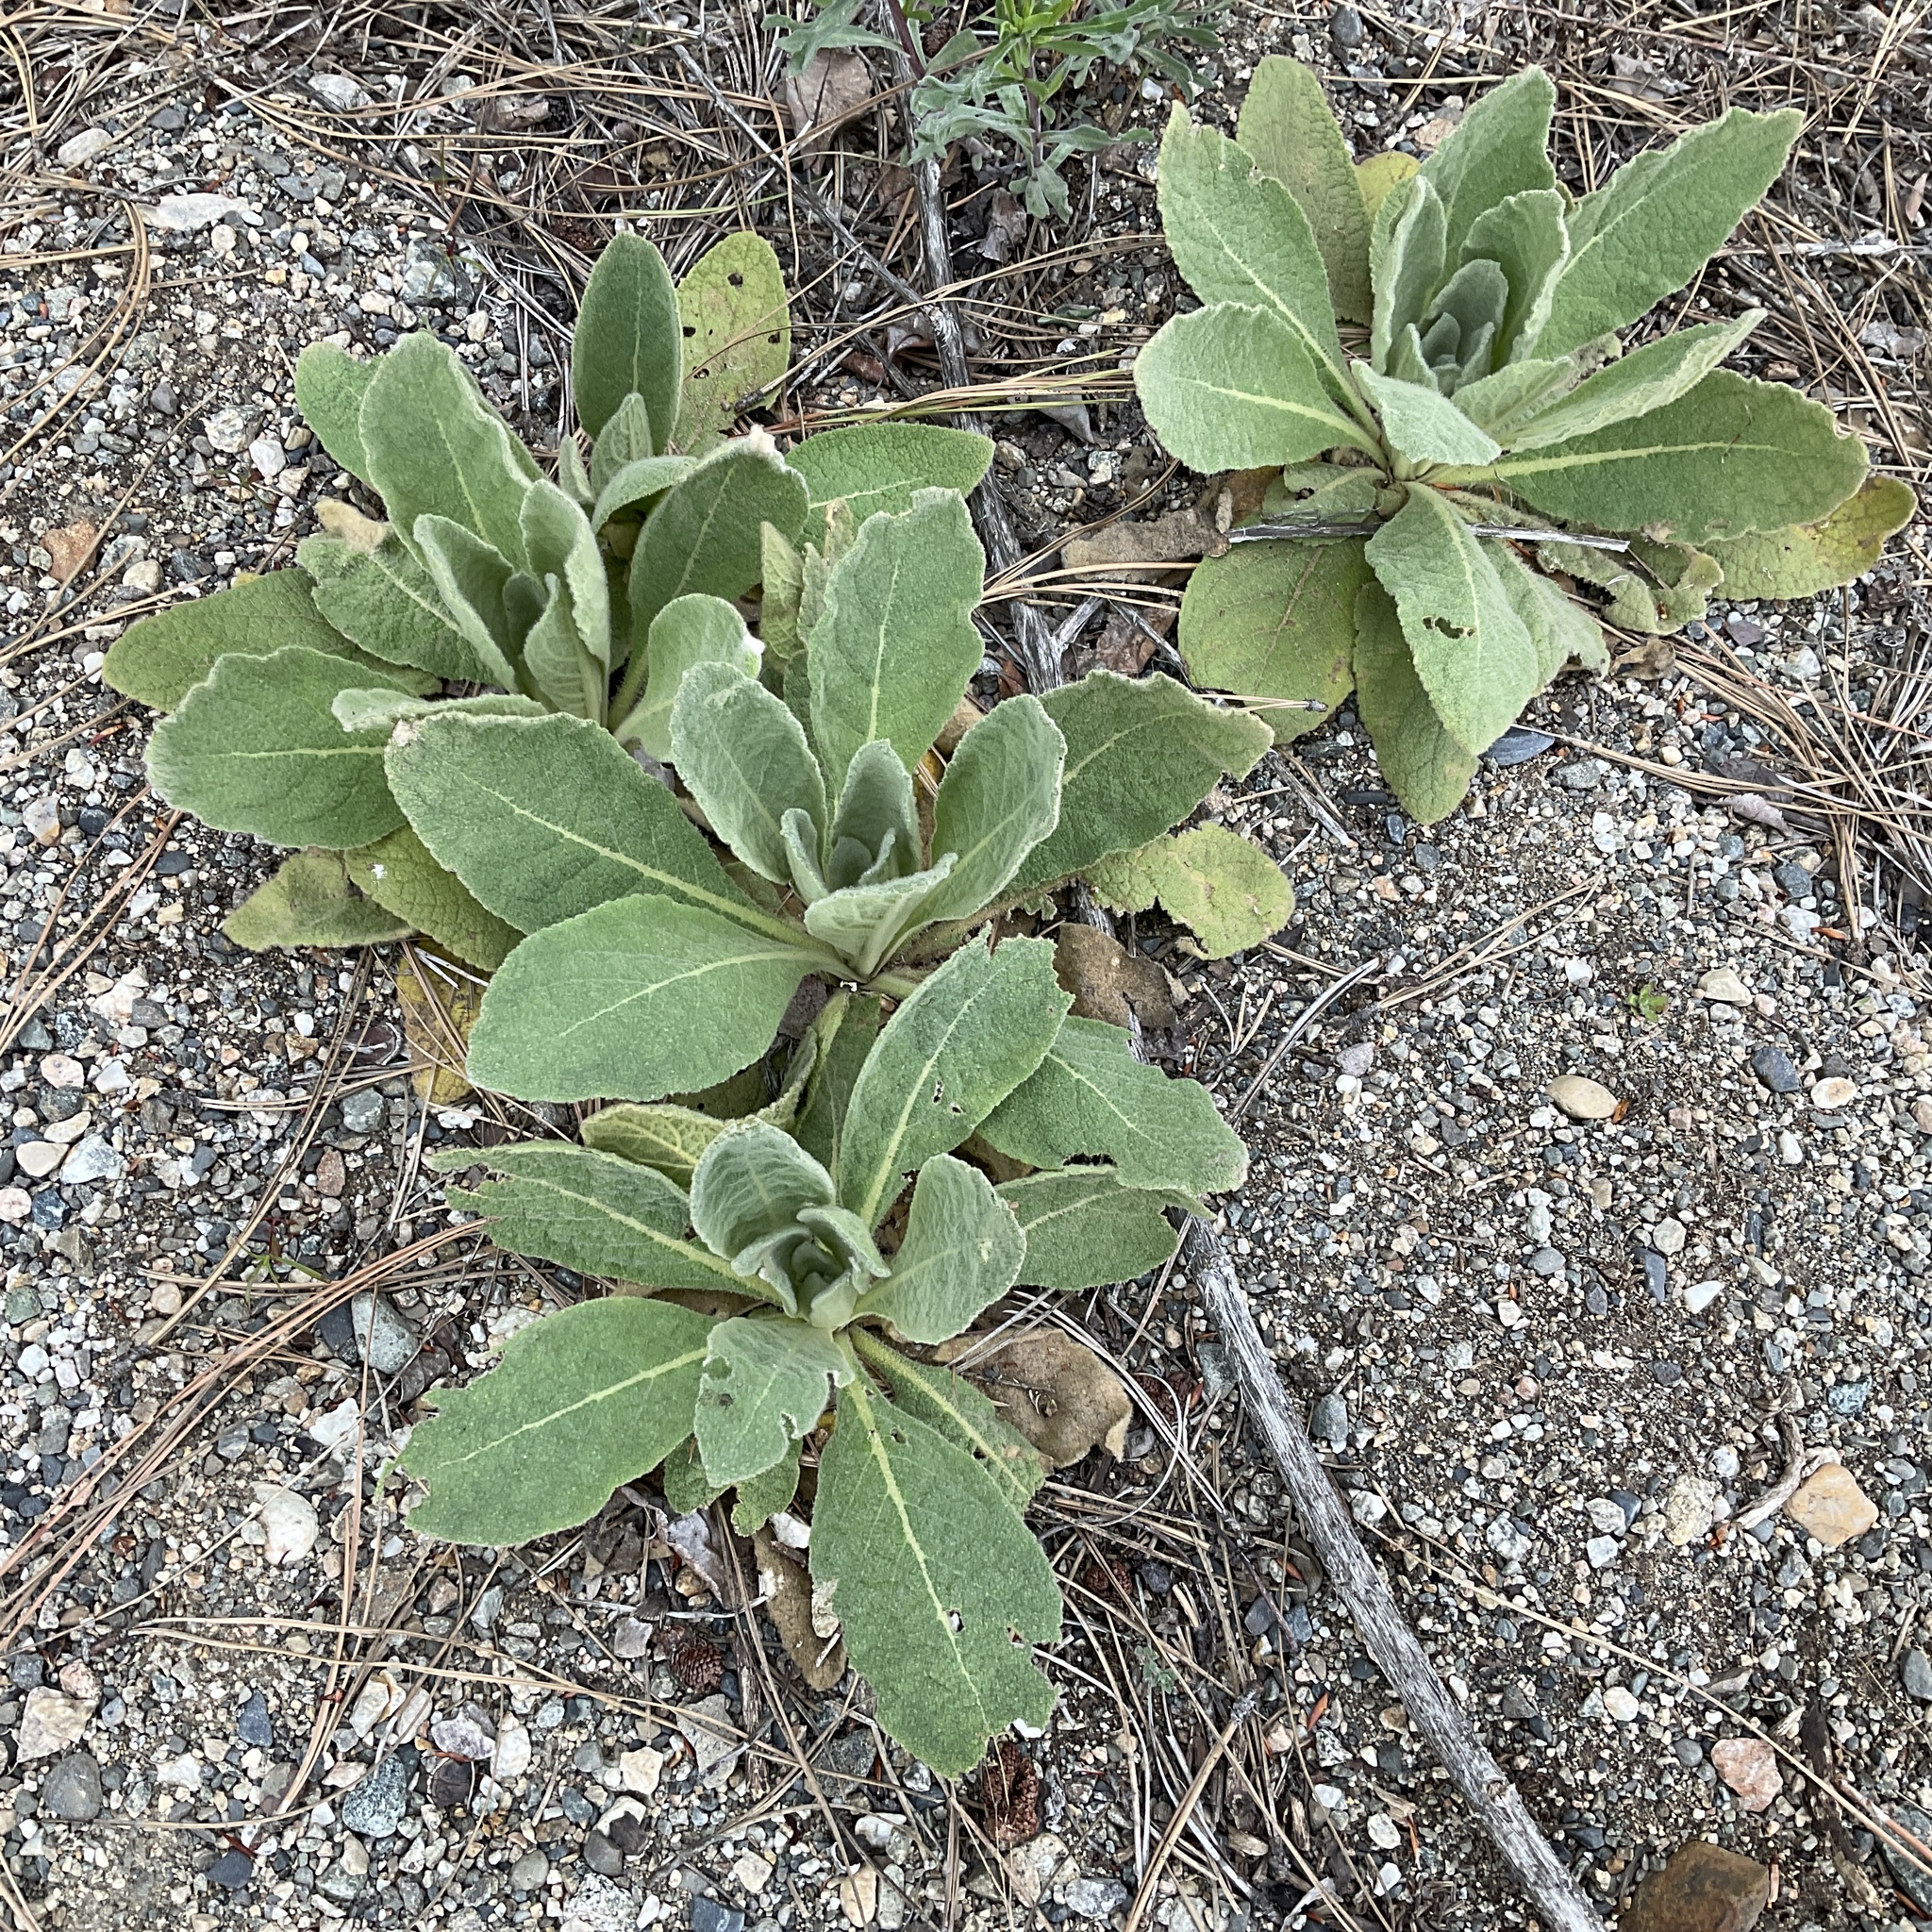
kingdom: Plantae
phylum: Tracheophyta
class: Magnoliopsida
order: Lamiales
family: Scrophulariaceae
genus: Verbascum
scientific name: Verbascum thapsus
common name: Common mullein
